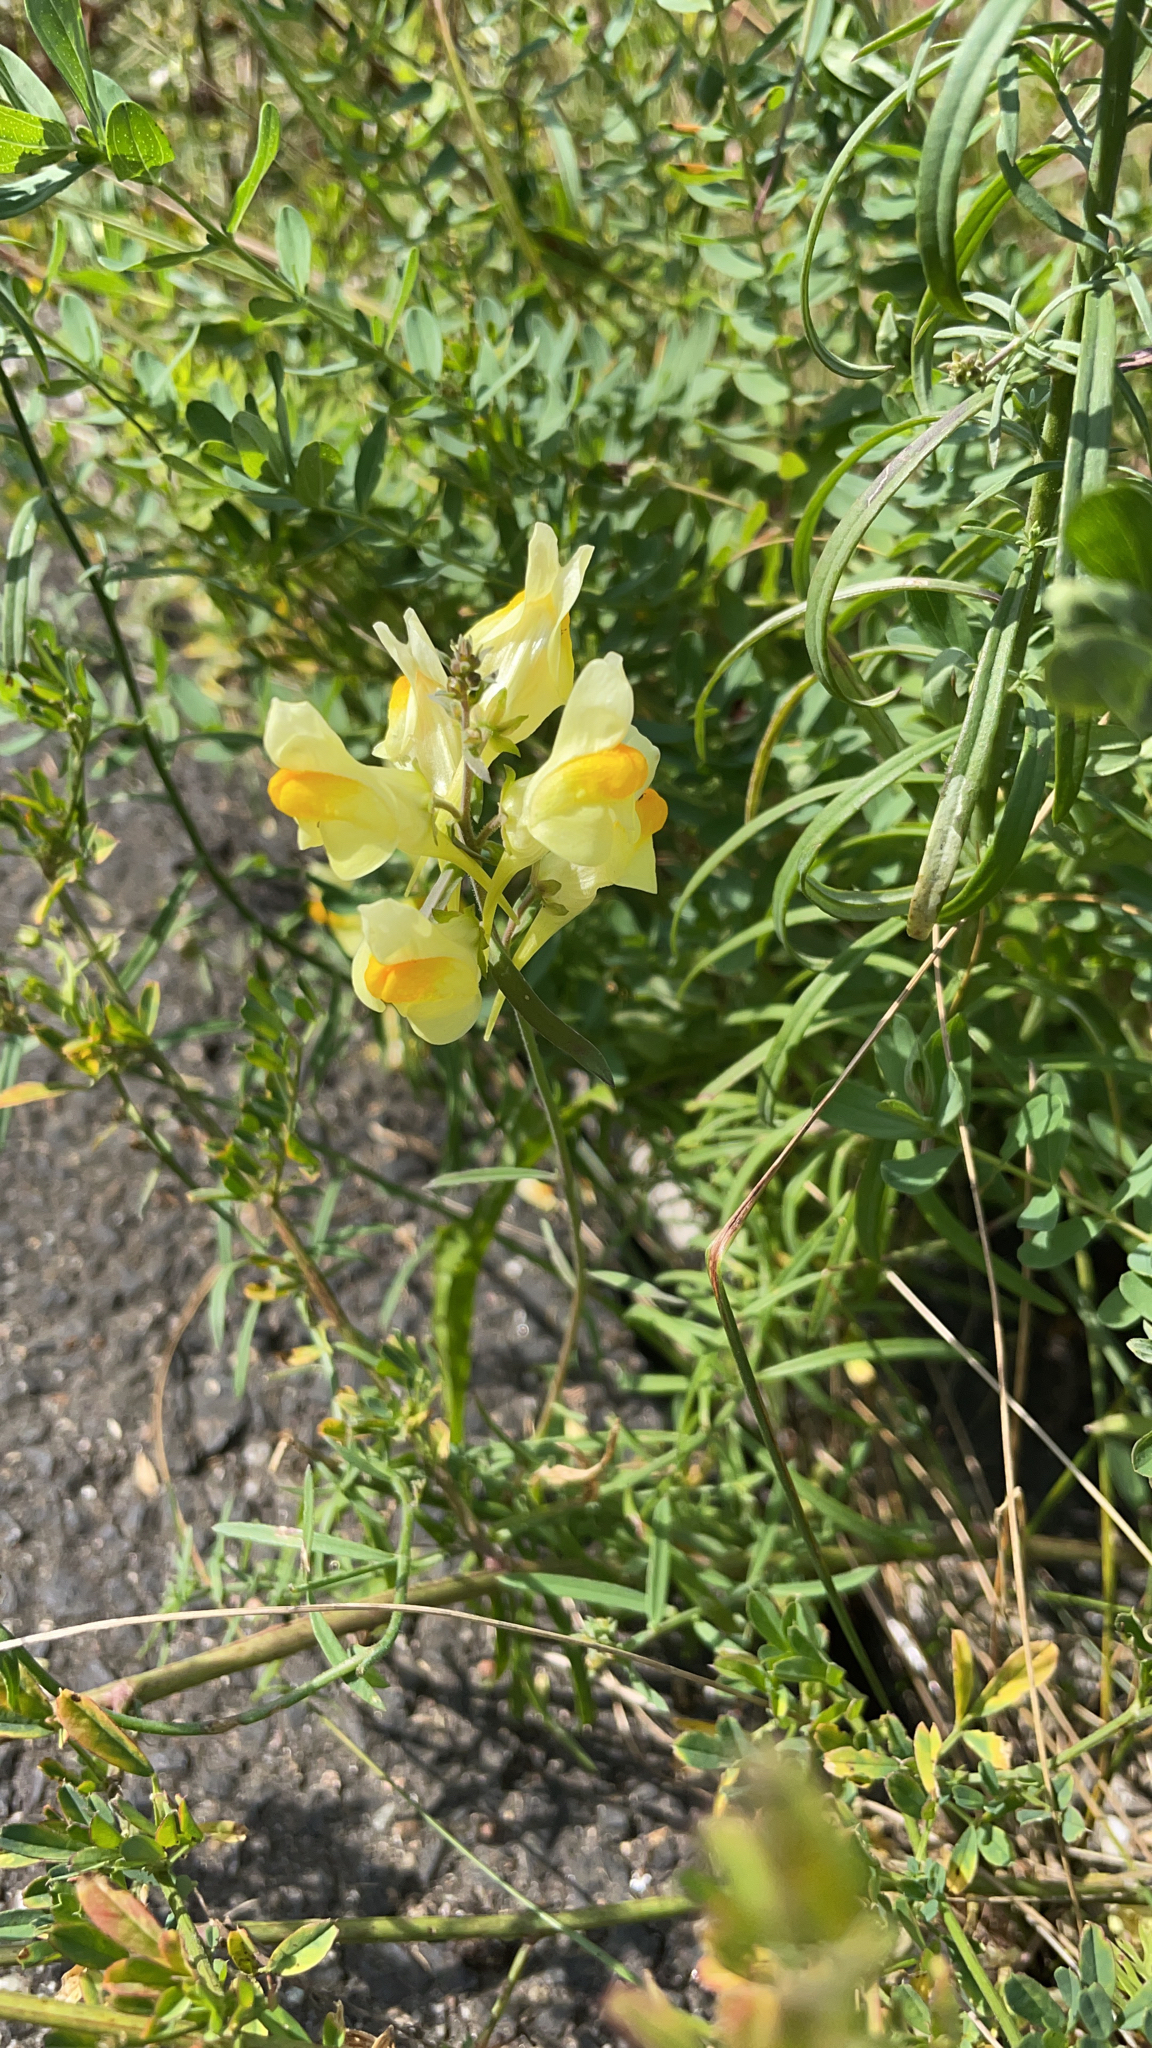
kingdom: Plantae
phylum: Tracheophyta
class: Magnoliopsida
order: Lamiales
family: Plantaginaceae
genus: Linaria
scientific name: Linaria vulgaris
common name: Butter and eggs
